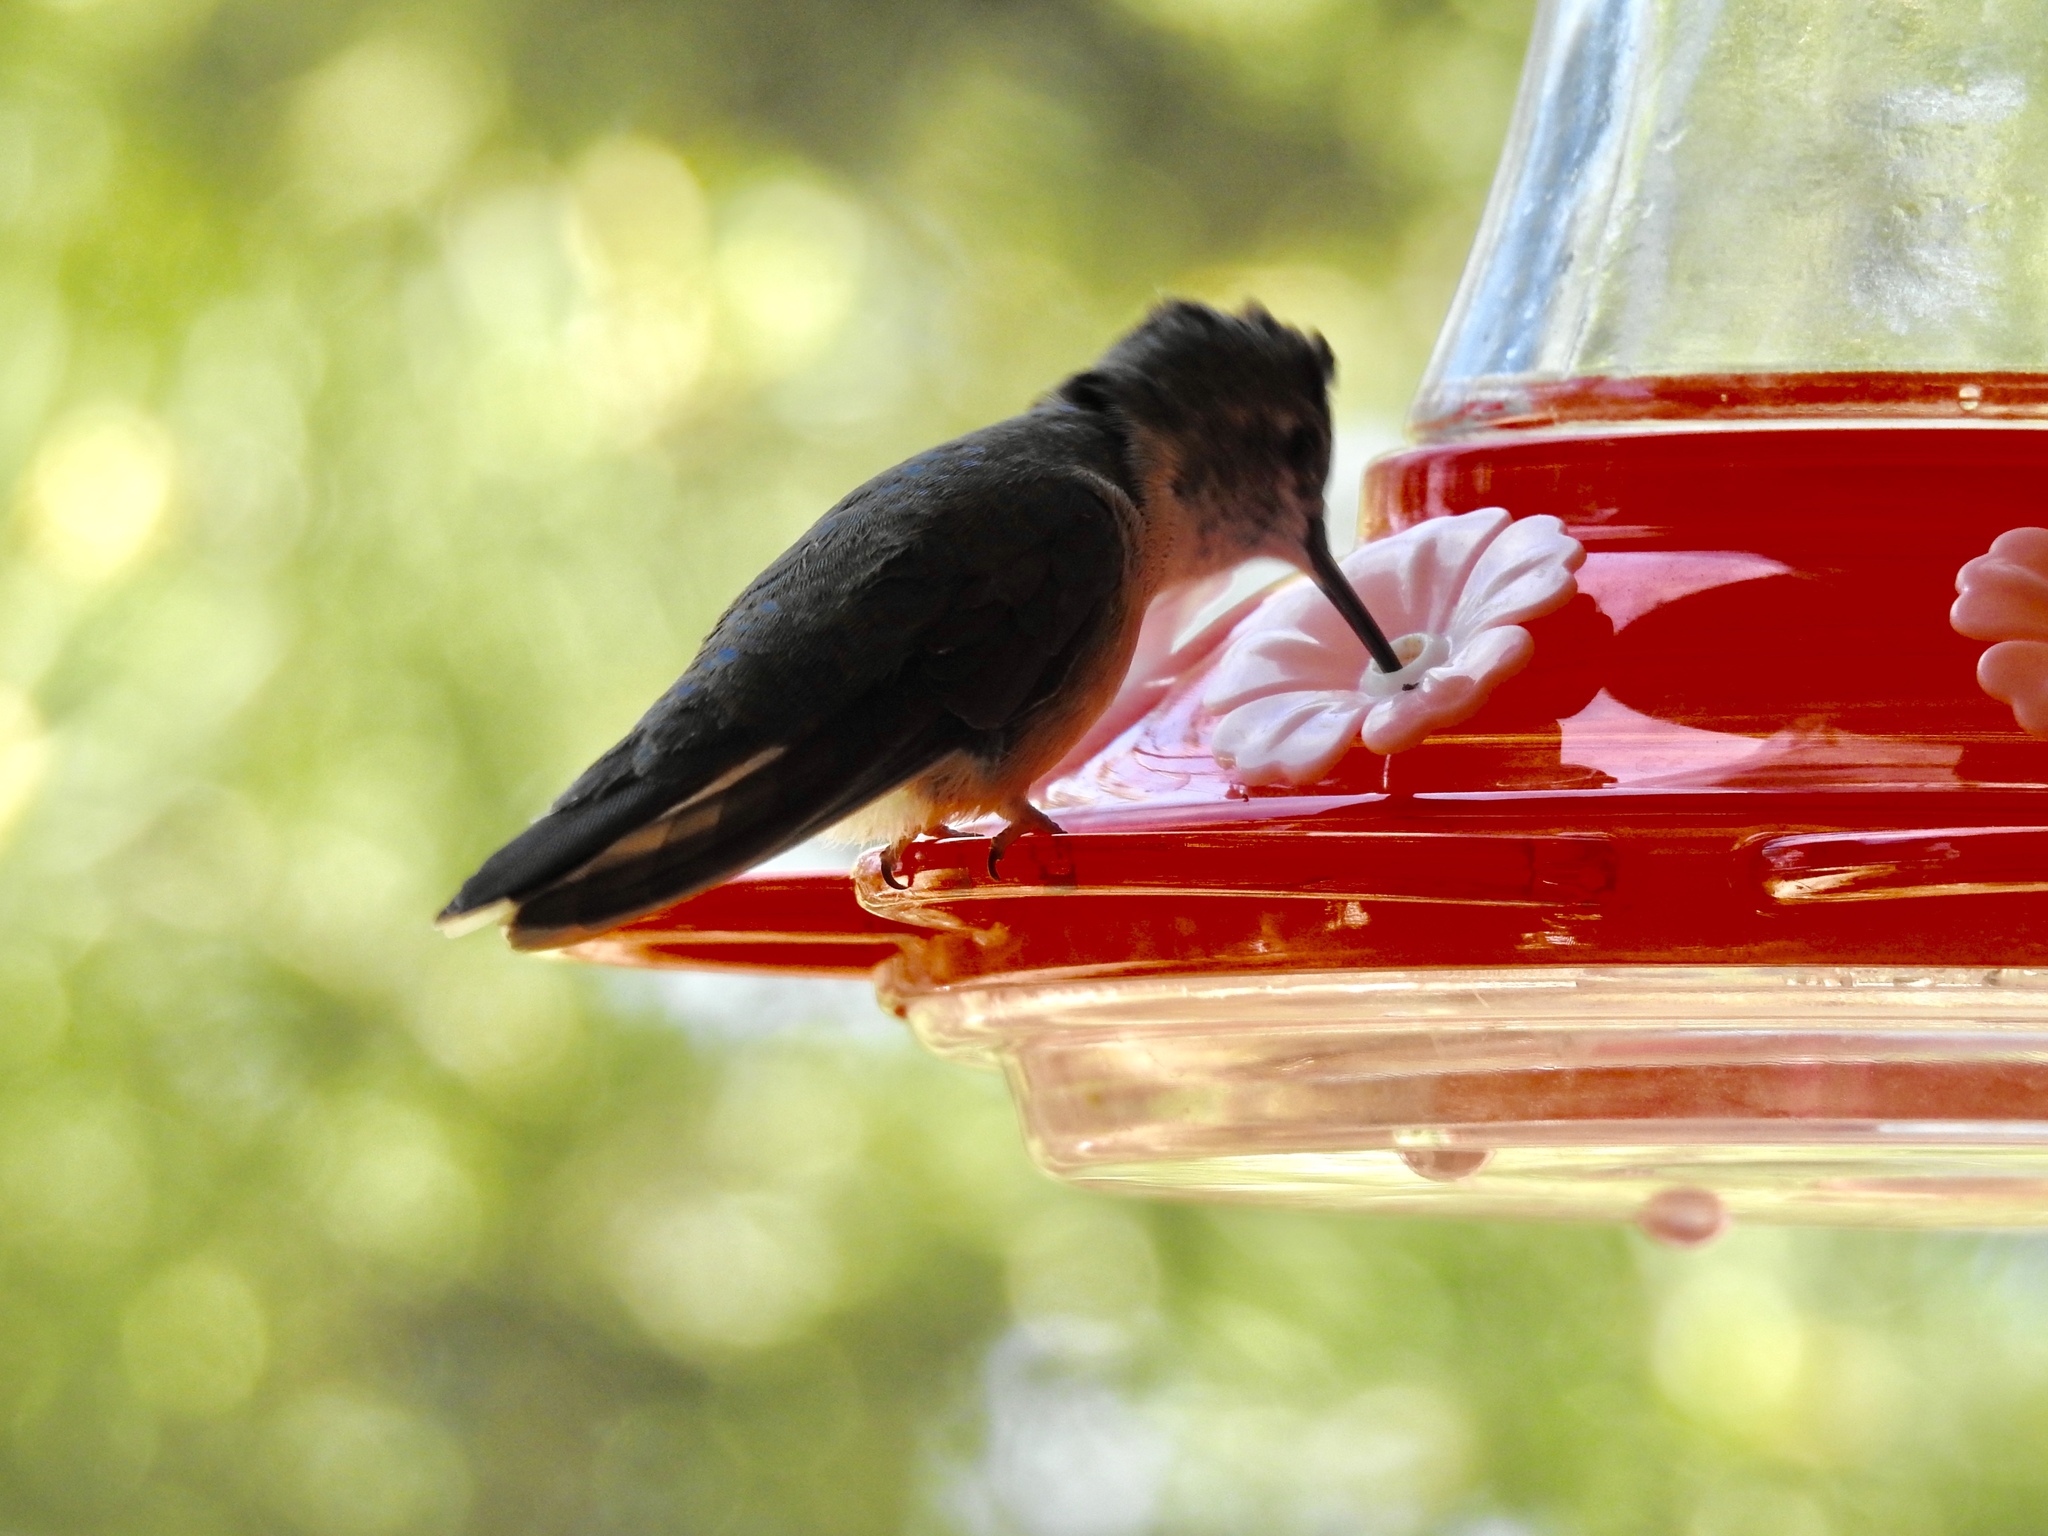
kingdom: Animalia
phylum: Chordata
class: Aves
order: Apodiformes
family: Trochilidae
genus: Selasphorus
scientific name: Selasphorus platycercus
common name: Broad-tailed hummingbird
